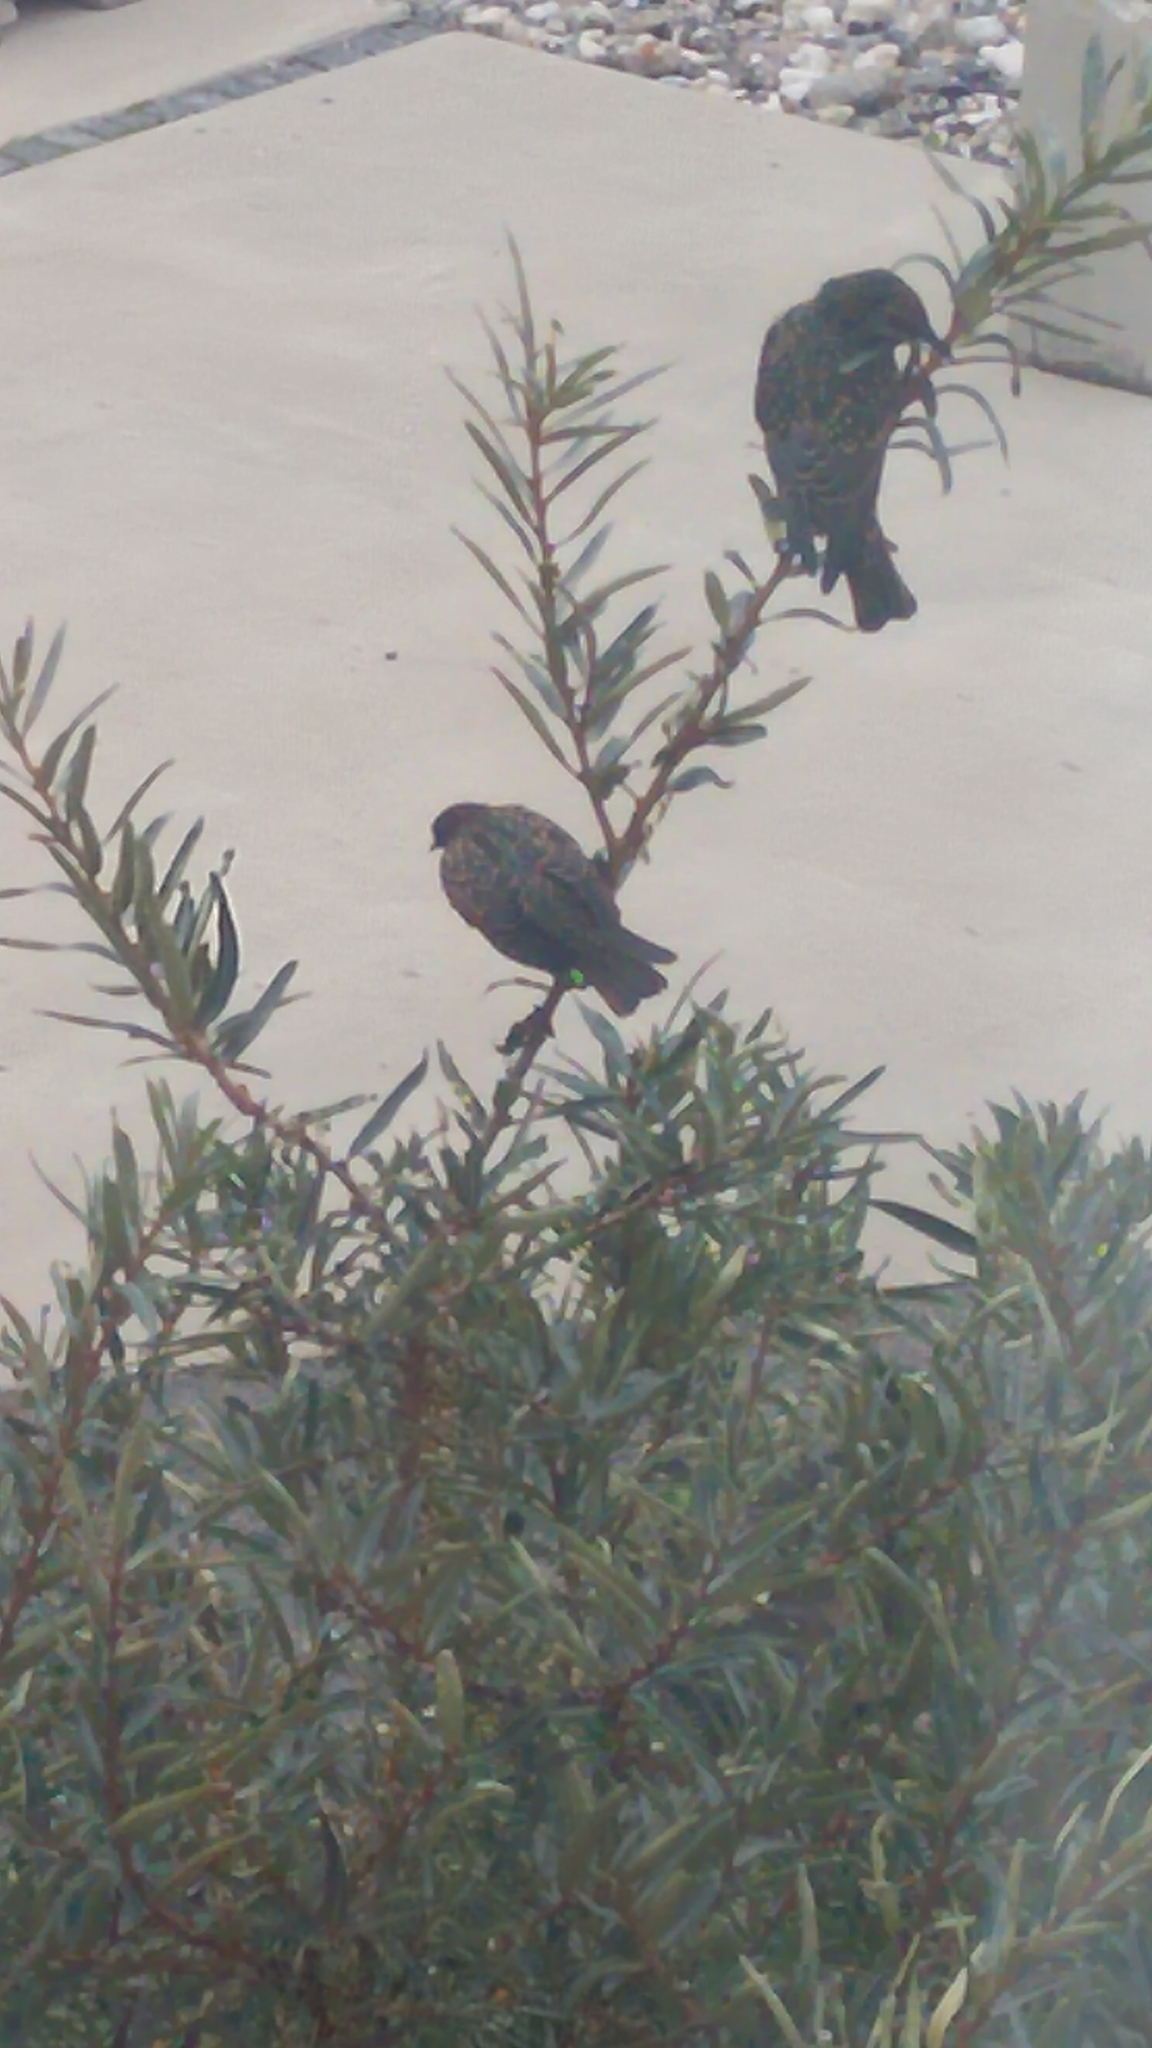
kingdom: Animalia
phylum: Chordata
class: Aves
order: Passeriformes
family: Sturnidae
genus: Sturnus
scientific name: Sturnus vulgaris
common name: Common starling
